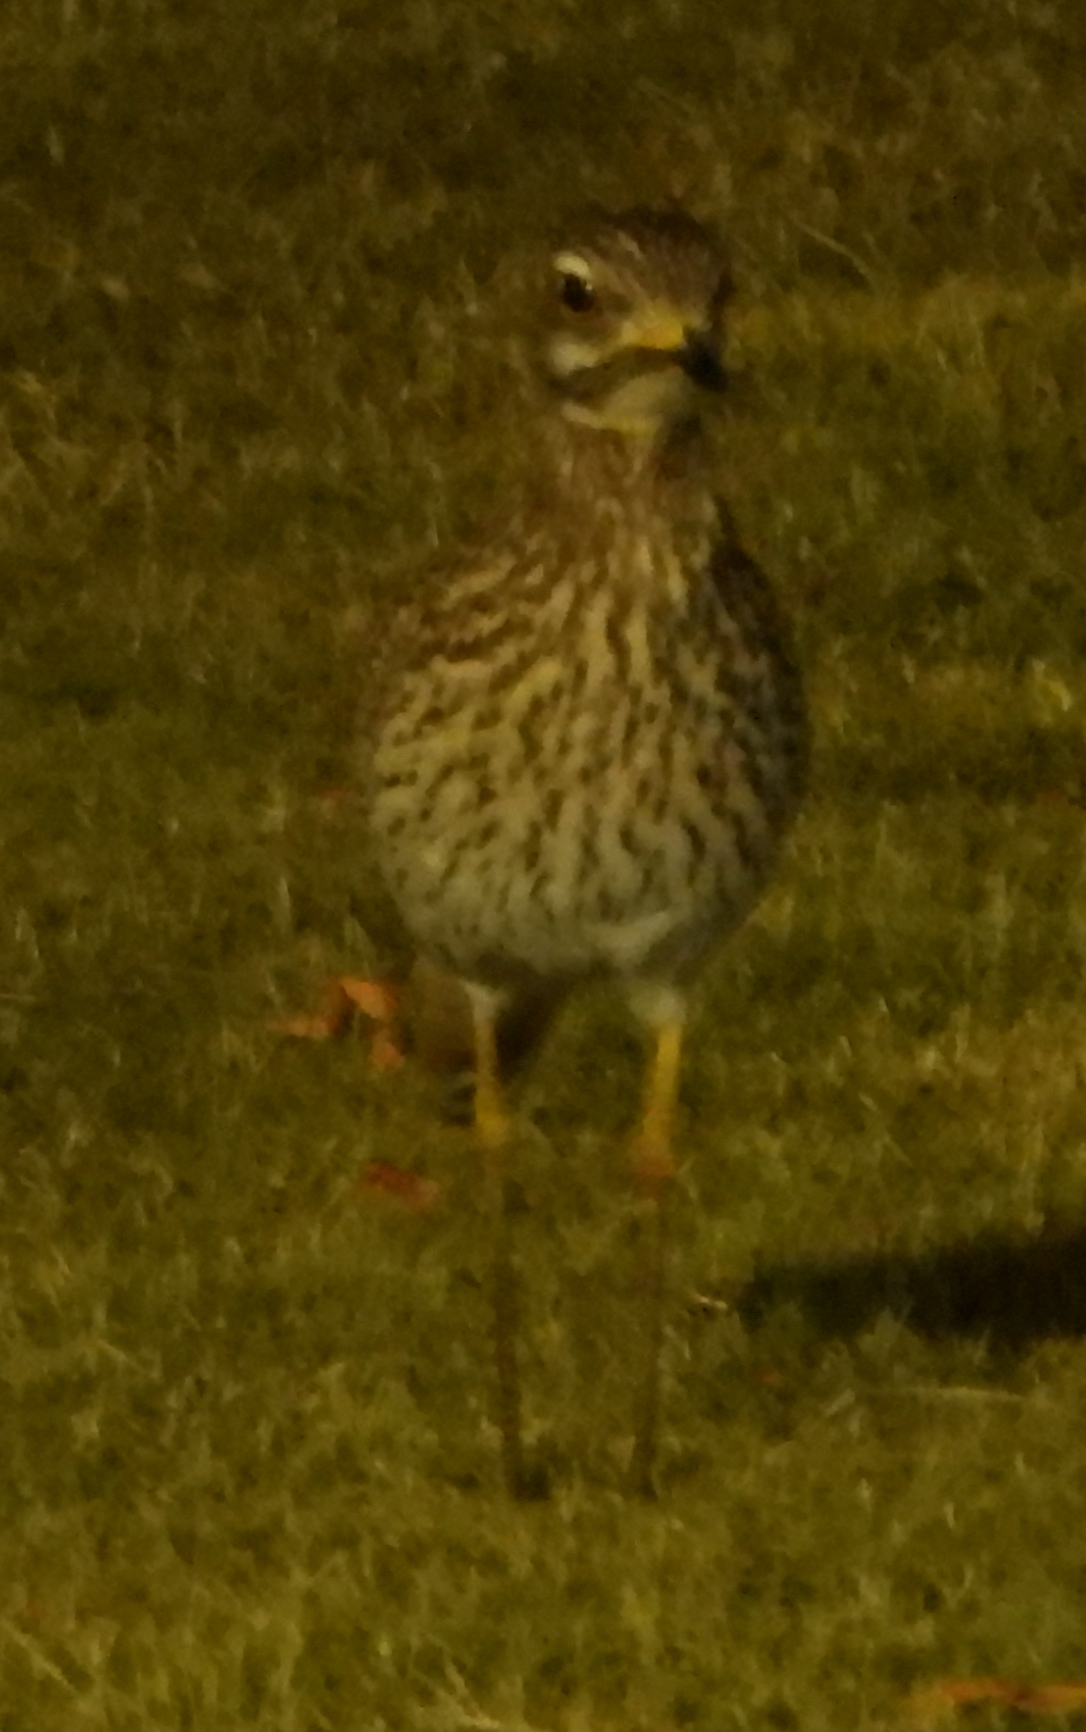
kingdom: Animalia
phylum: Chordata
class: Aves
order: Charadriiformes
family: Burhinidae
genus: Burhinus
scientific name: Burhinus capensis
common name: Spotted thick-knee
